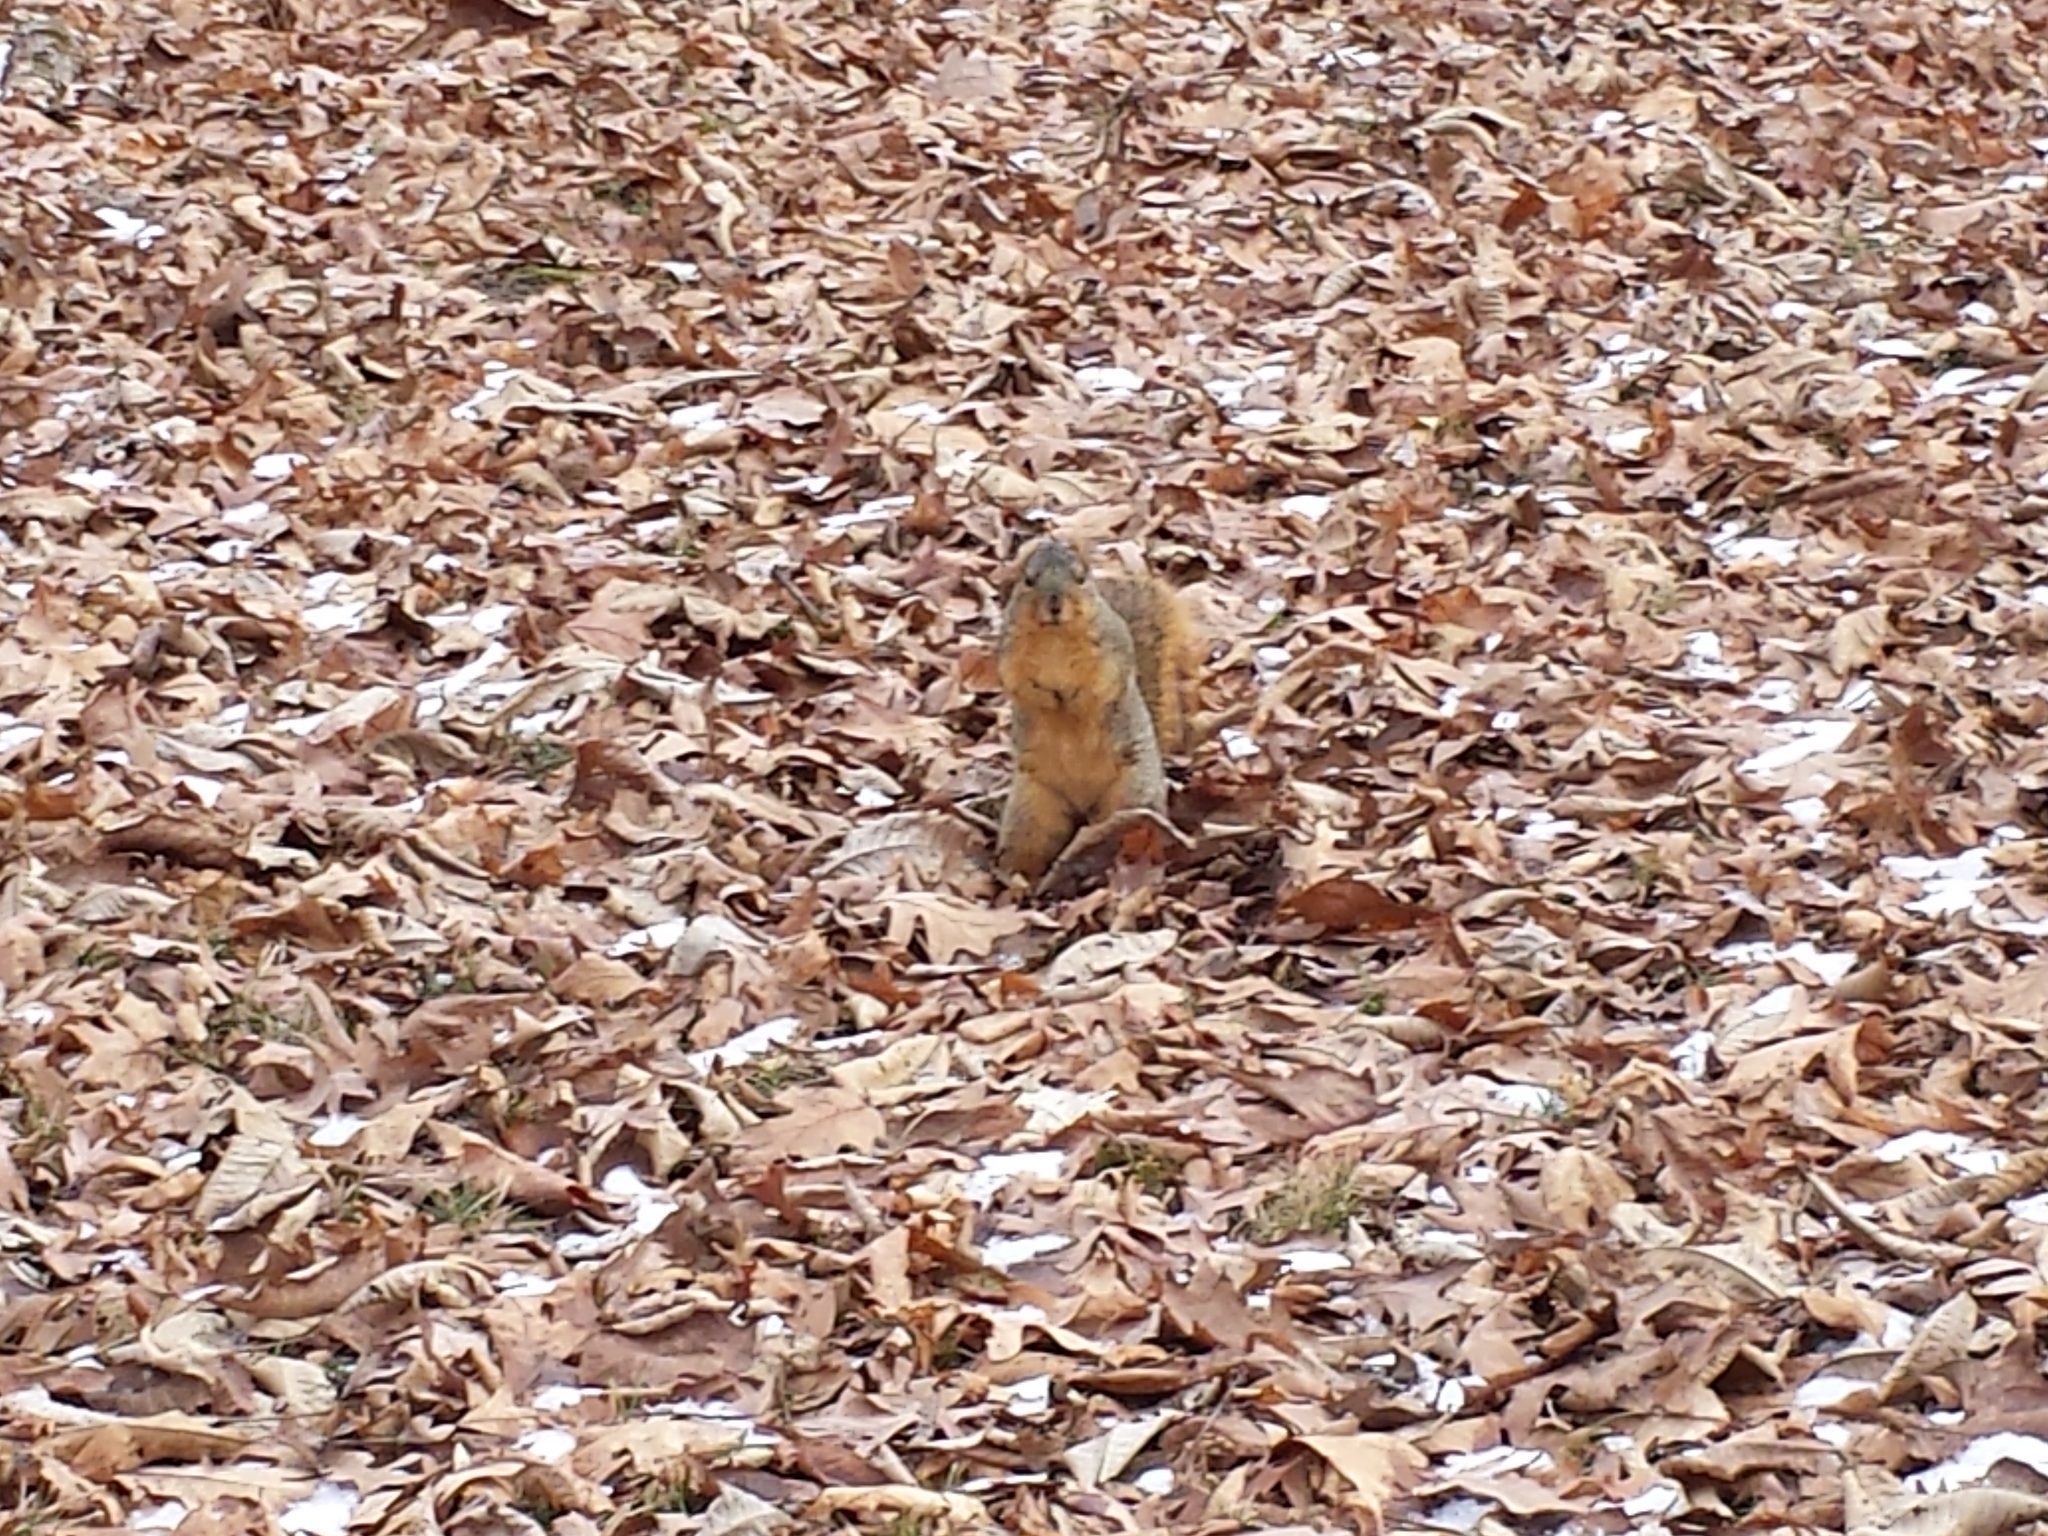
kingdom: Animalia
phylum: Chordata
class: Mammalia
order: Rodentia
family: Sciuridae
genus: Sciurus
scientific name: Sciurus niger
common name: Fox squirrel
